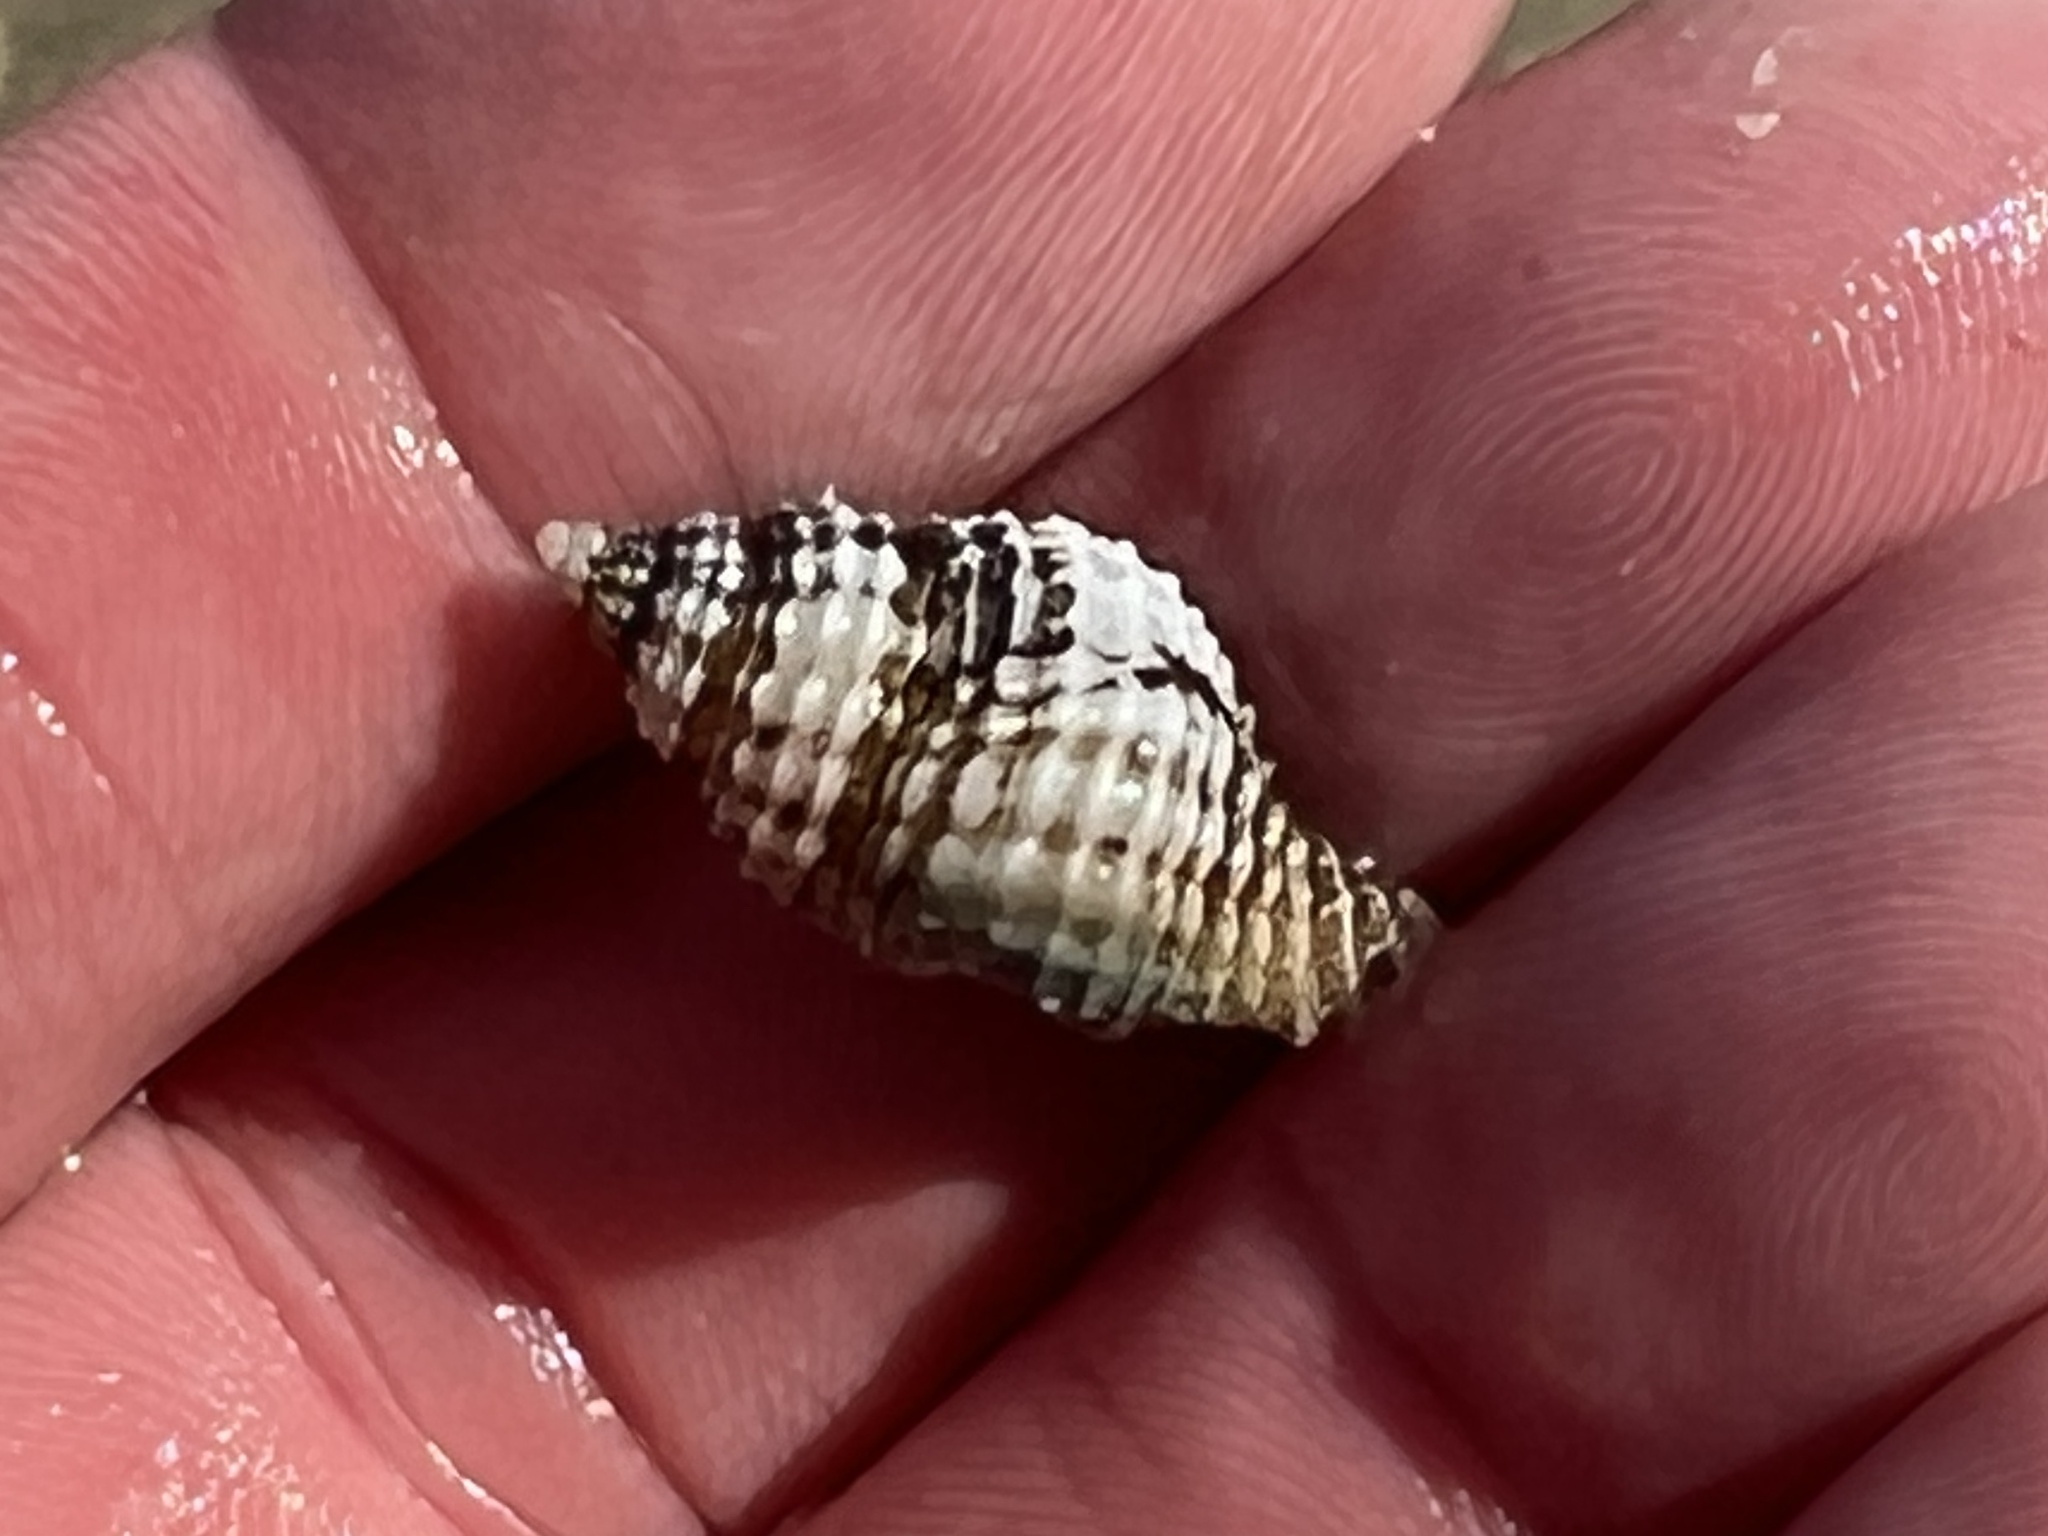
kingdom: Animalia
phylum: Mollusca
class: Gastropoda
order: Neogastropoda
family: Pisaniidae
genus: Solenosteira
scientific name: Solenosteira cancellaria
